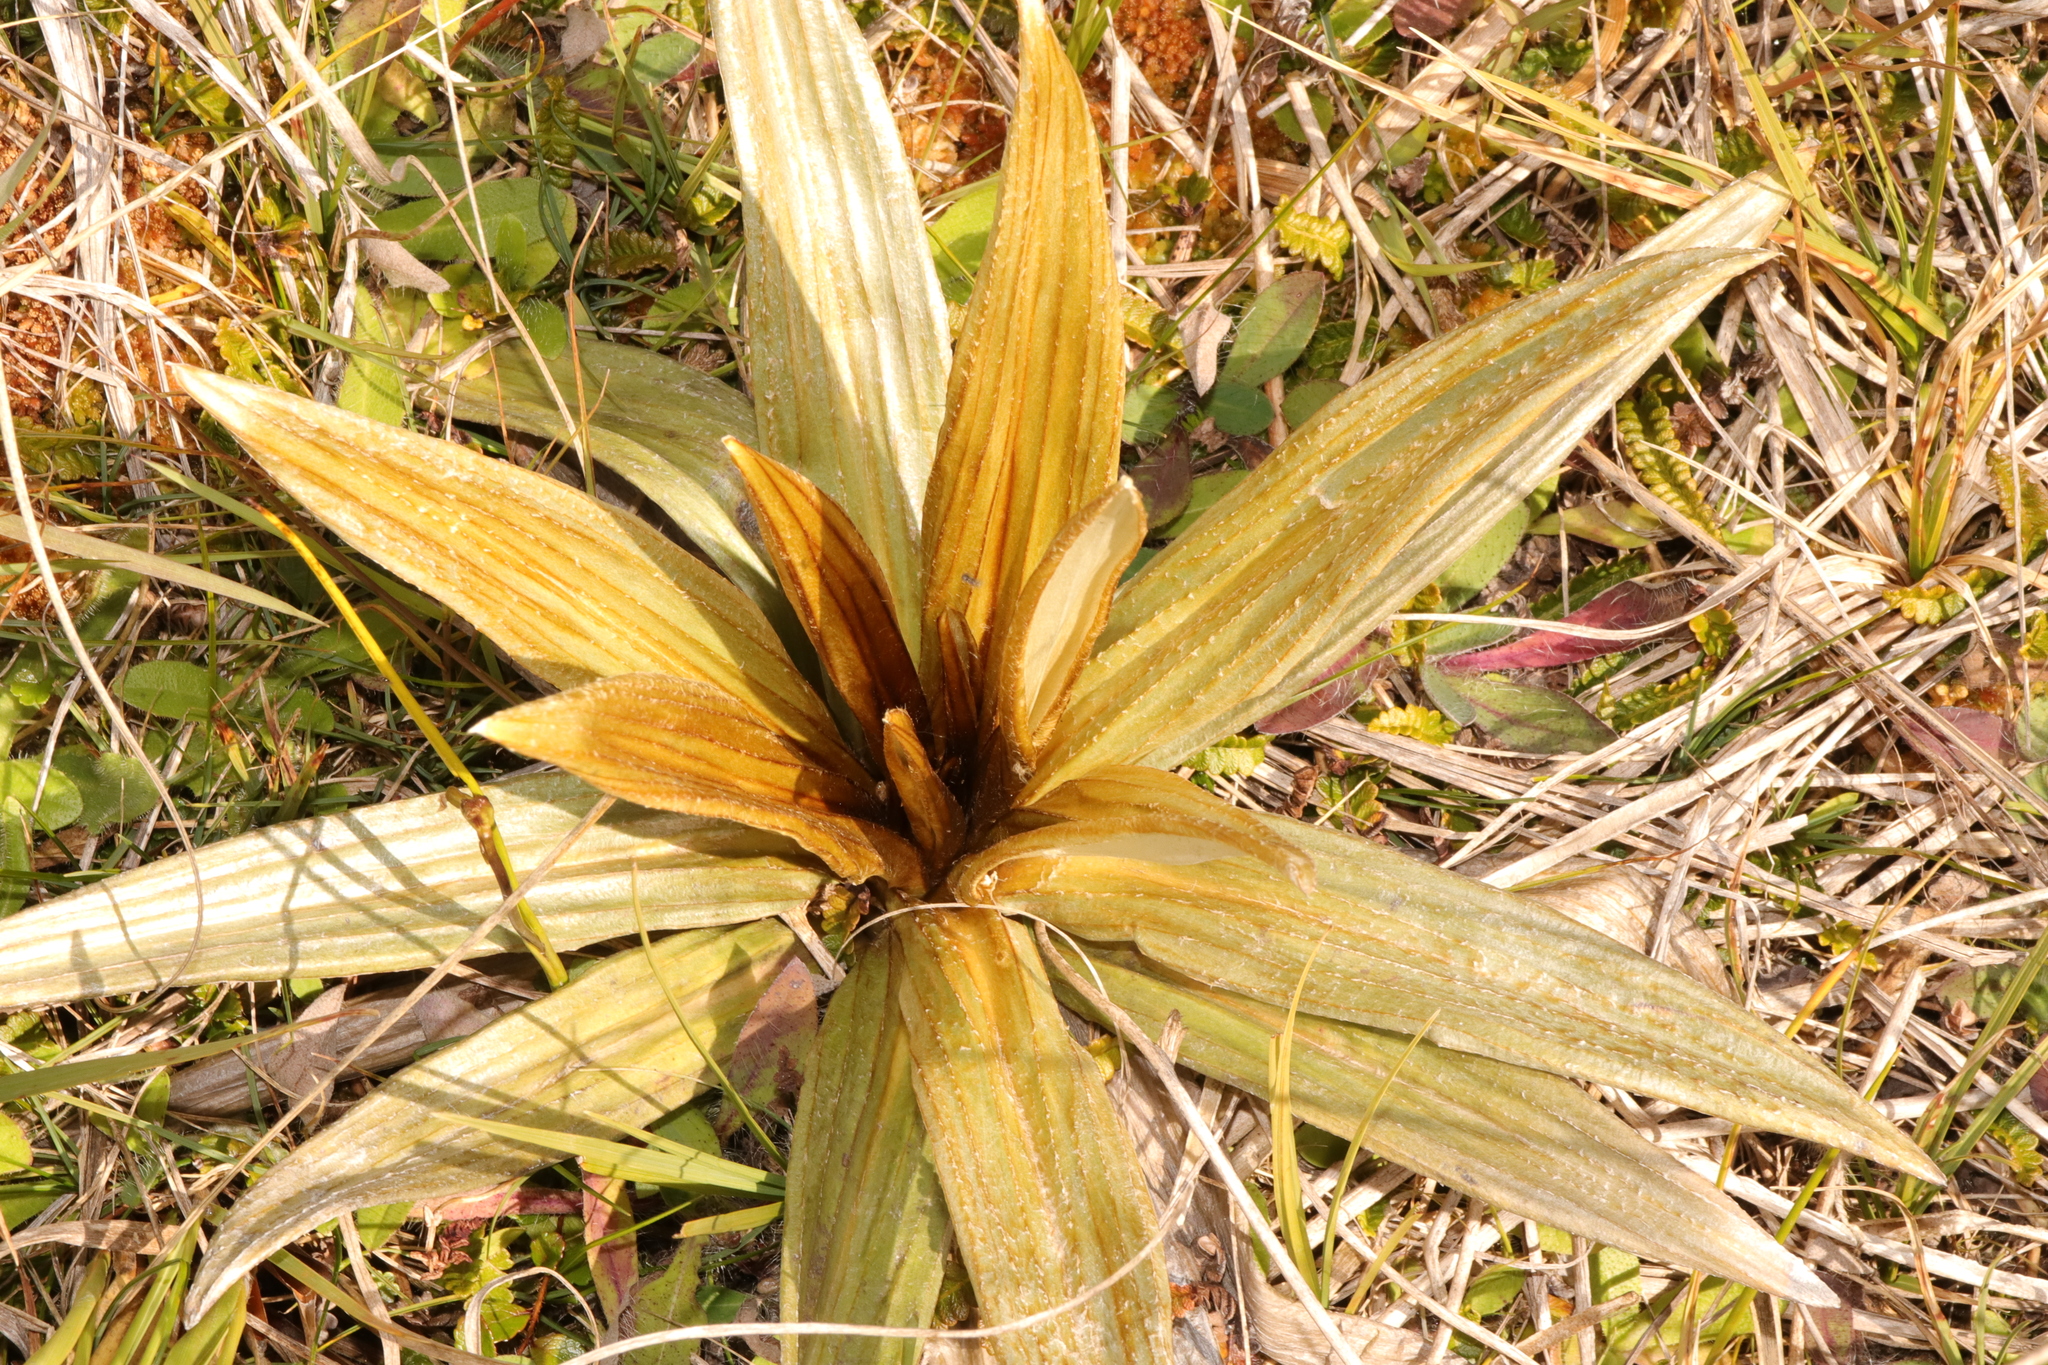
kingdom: Plantae
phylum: Tracheophyta
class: Magnoliopsida
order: Asterales
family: Asteraceae
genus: Celmisia
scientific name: Celmisia semicordata
